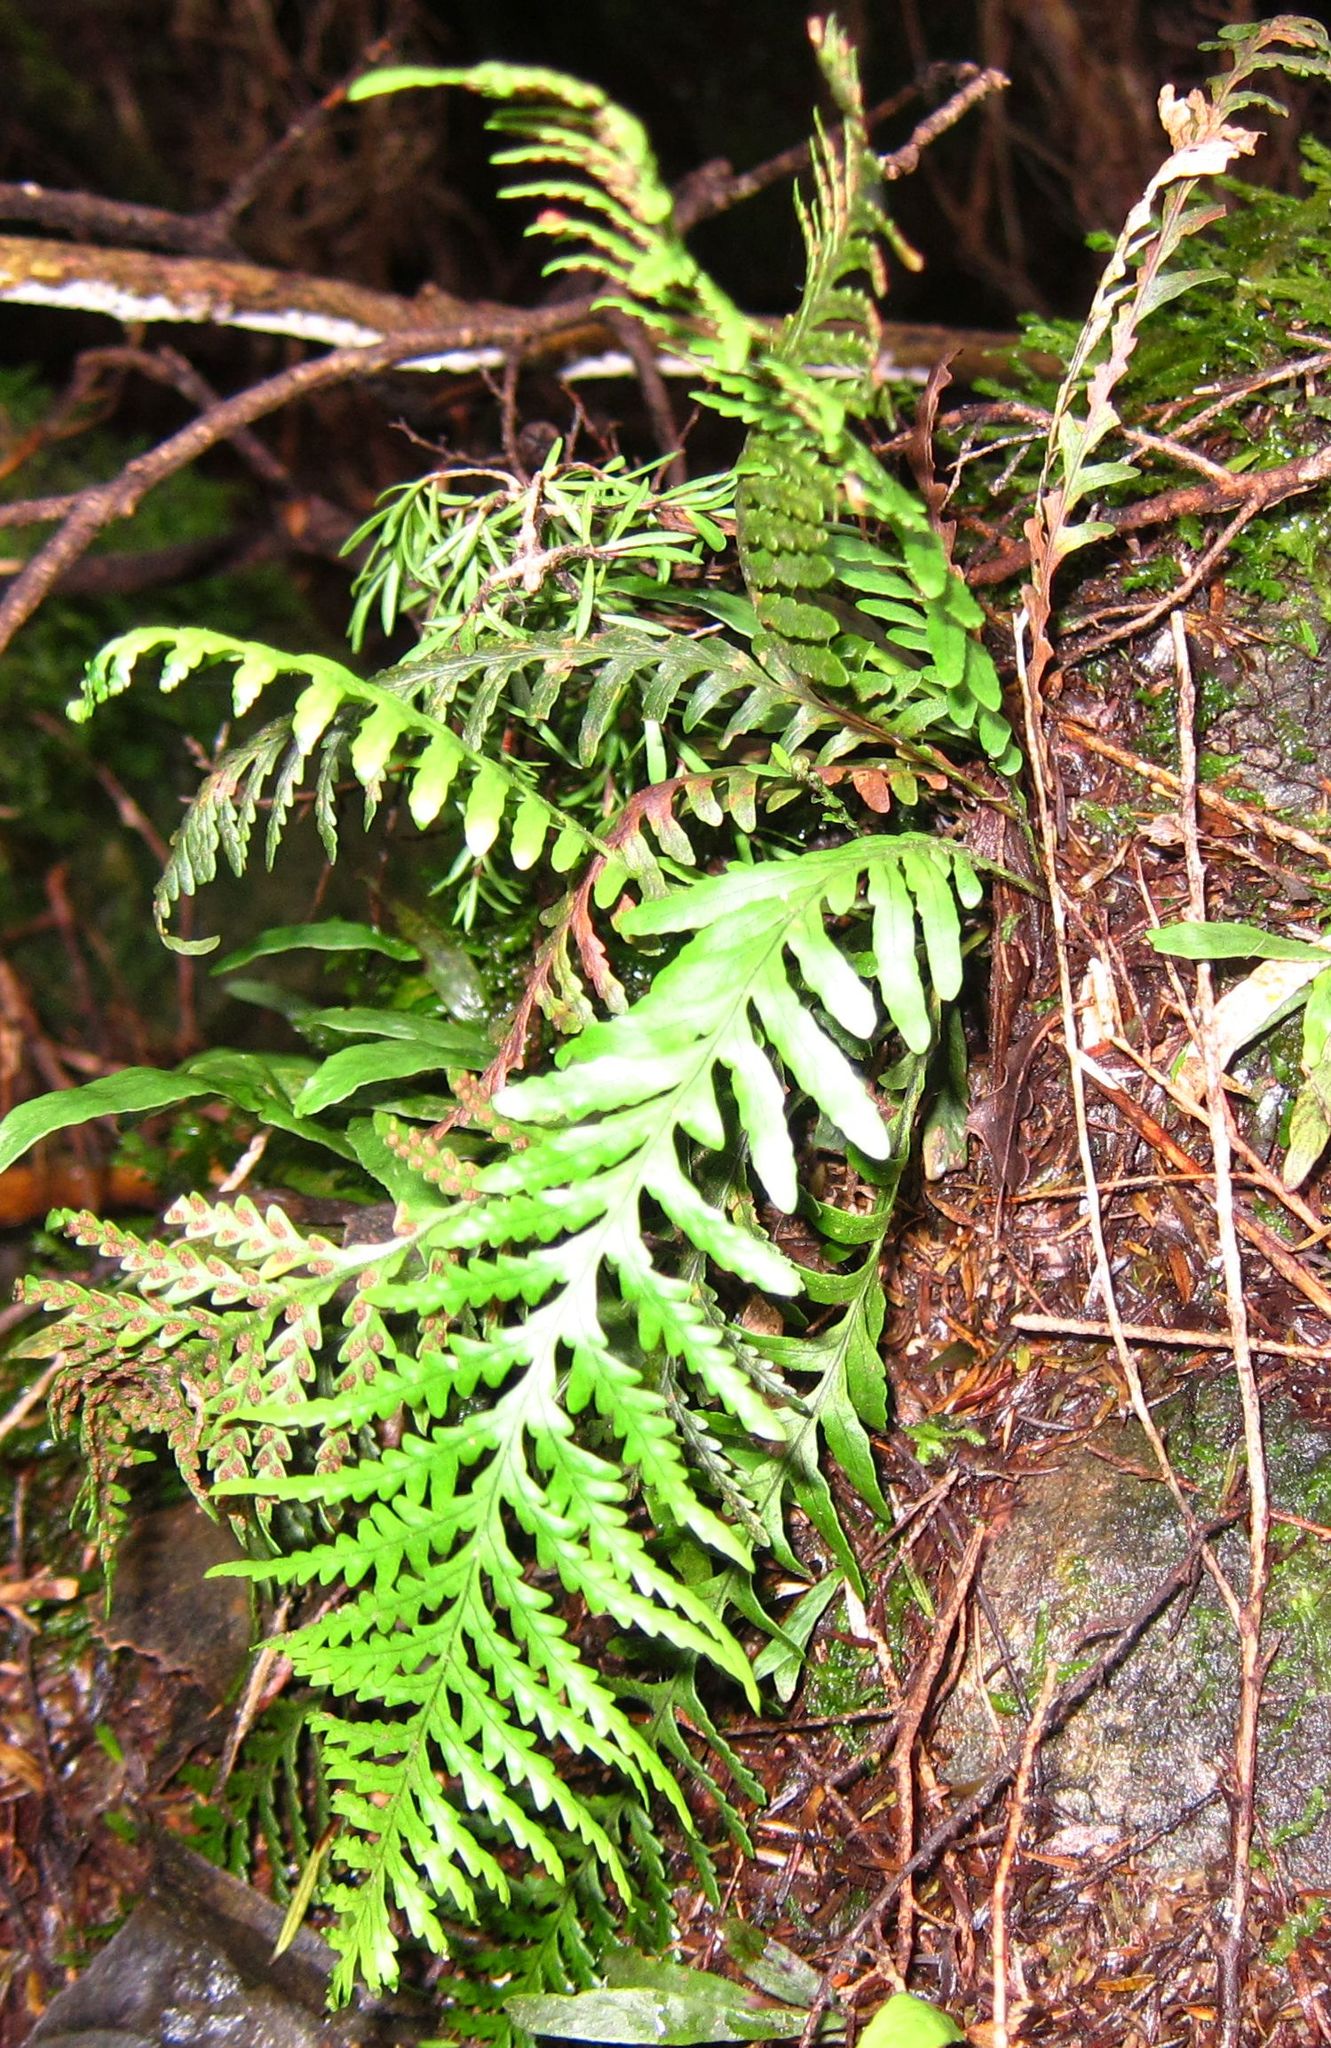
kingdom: Plantae
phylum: Tracheophyta
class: Polypodiopsida
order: Polypodiales
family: Polypodiaceae
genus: Notogrammitis
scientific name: Notogrammitis heterophylla
